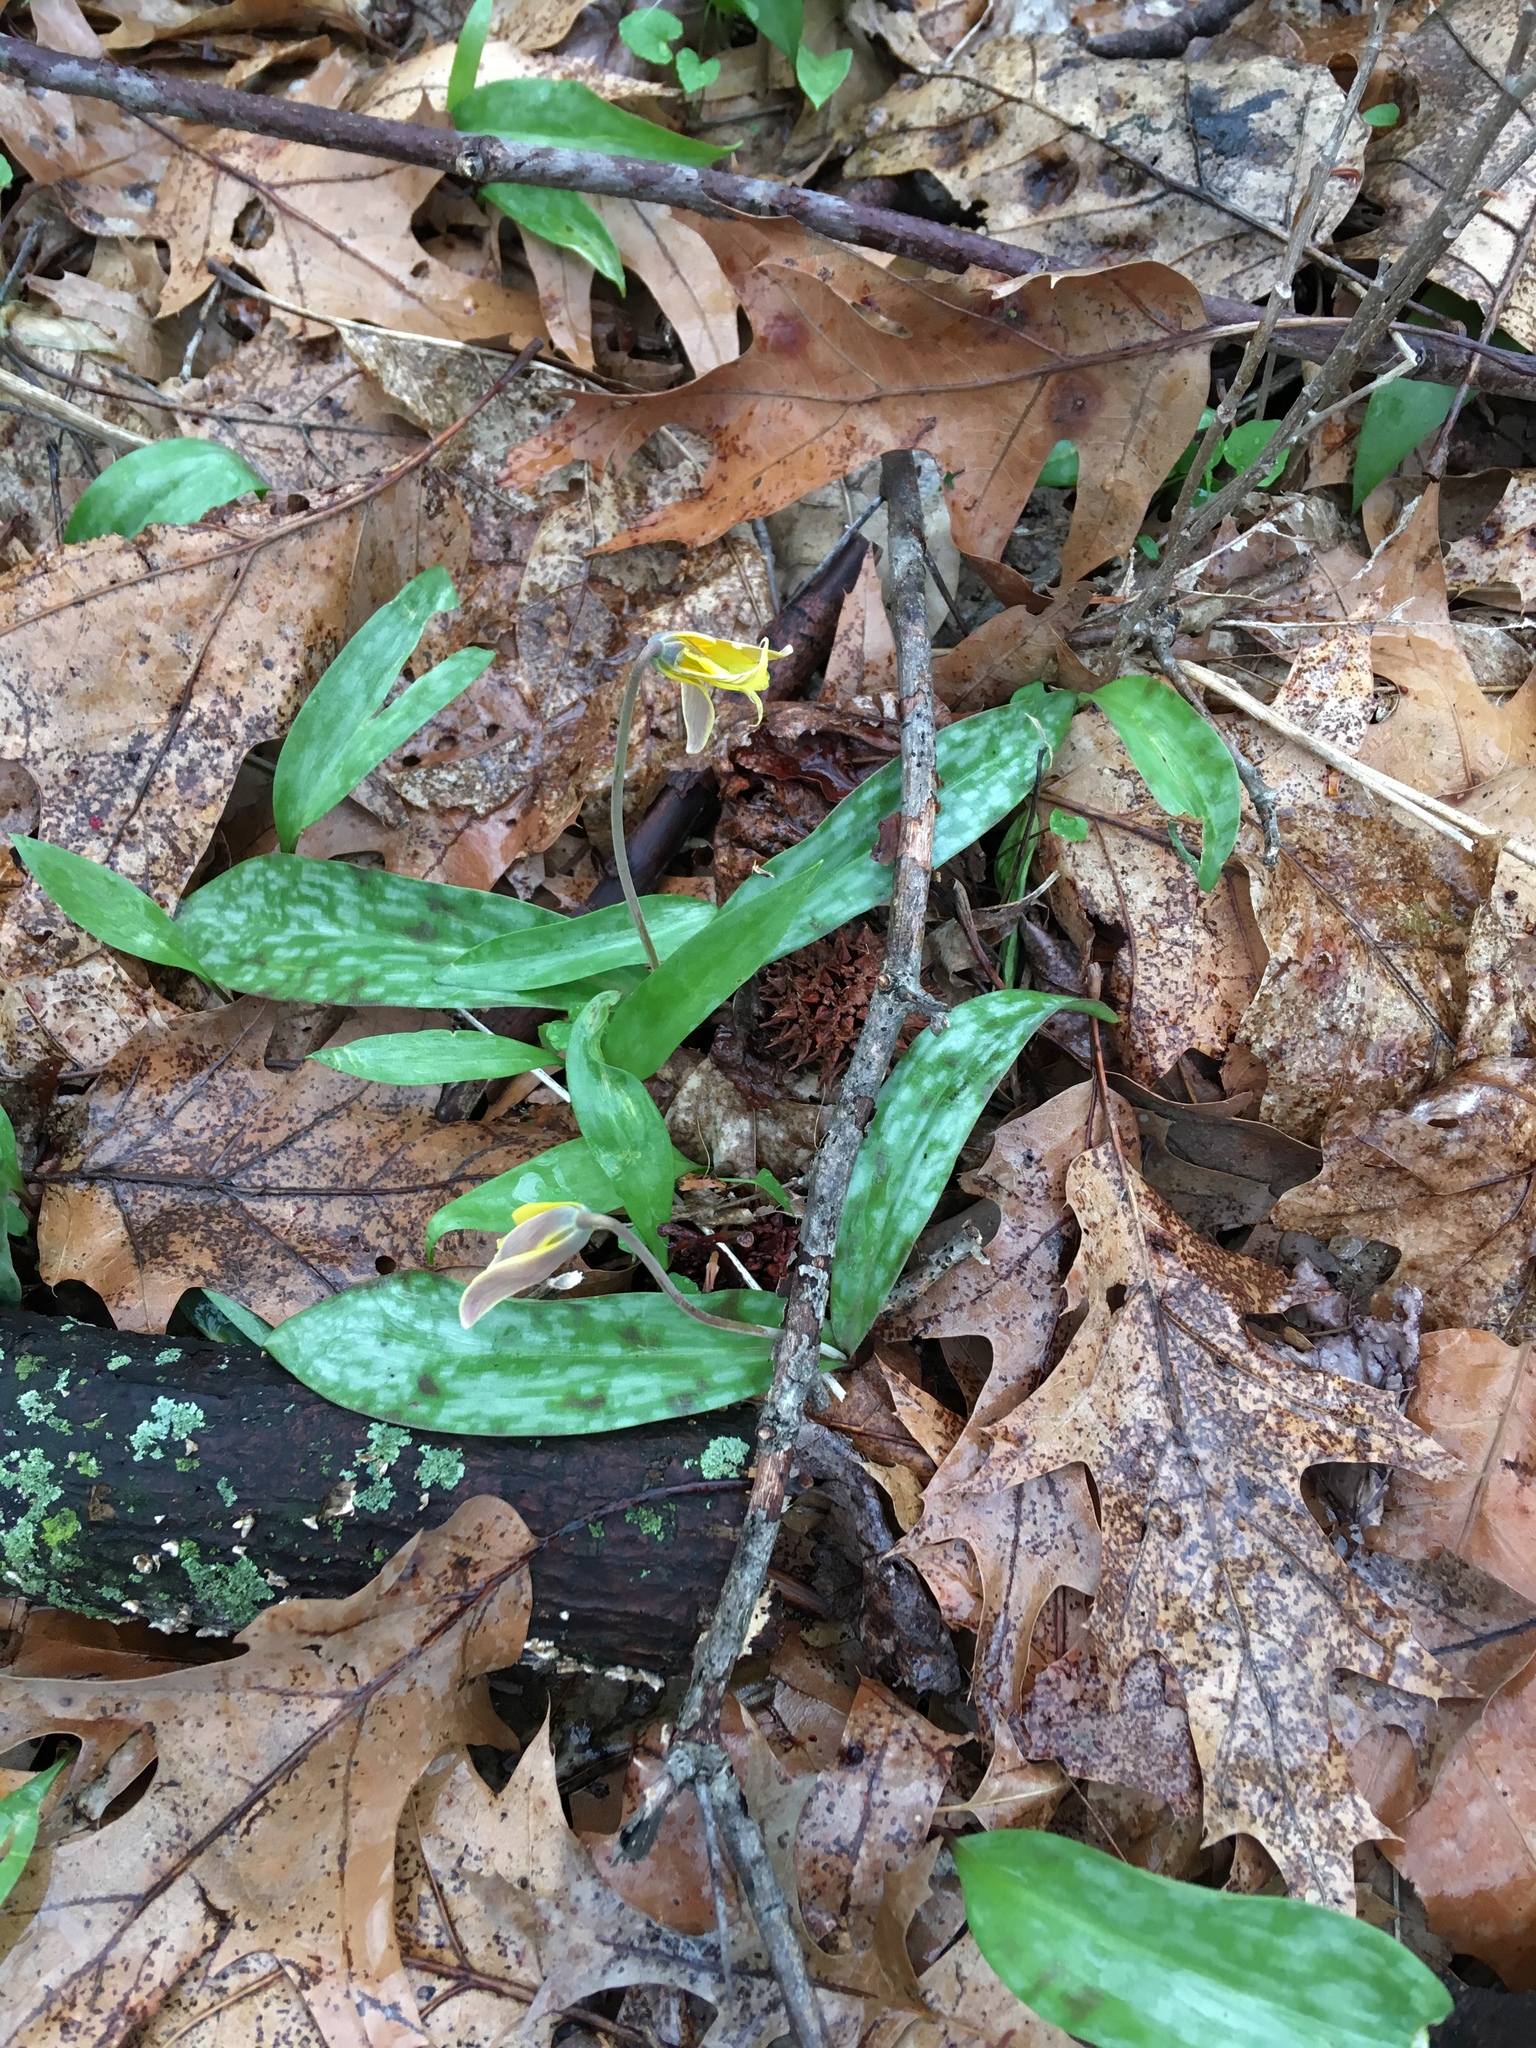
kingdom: Plantae
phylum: Tracheophyta
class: Liliopsida
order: Liliales
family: Liliaceae
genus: Erythronium
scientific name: Erythronium americanum
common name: Yellow adder's-tongue
